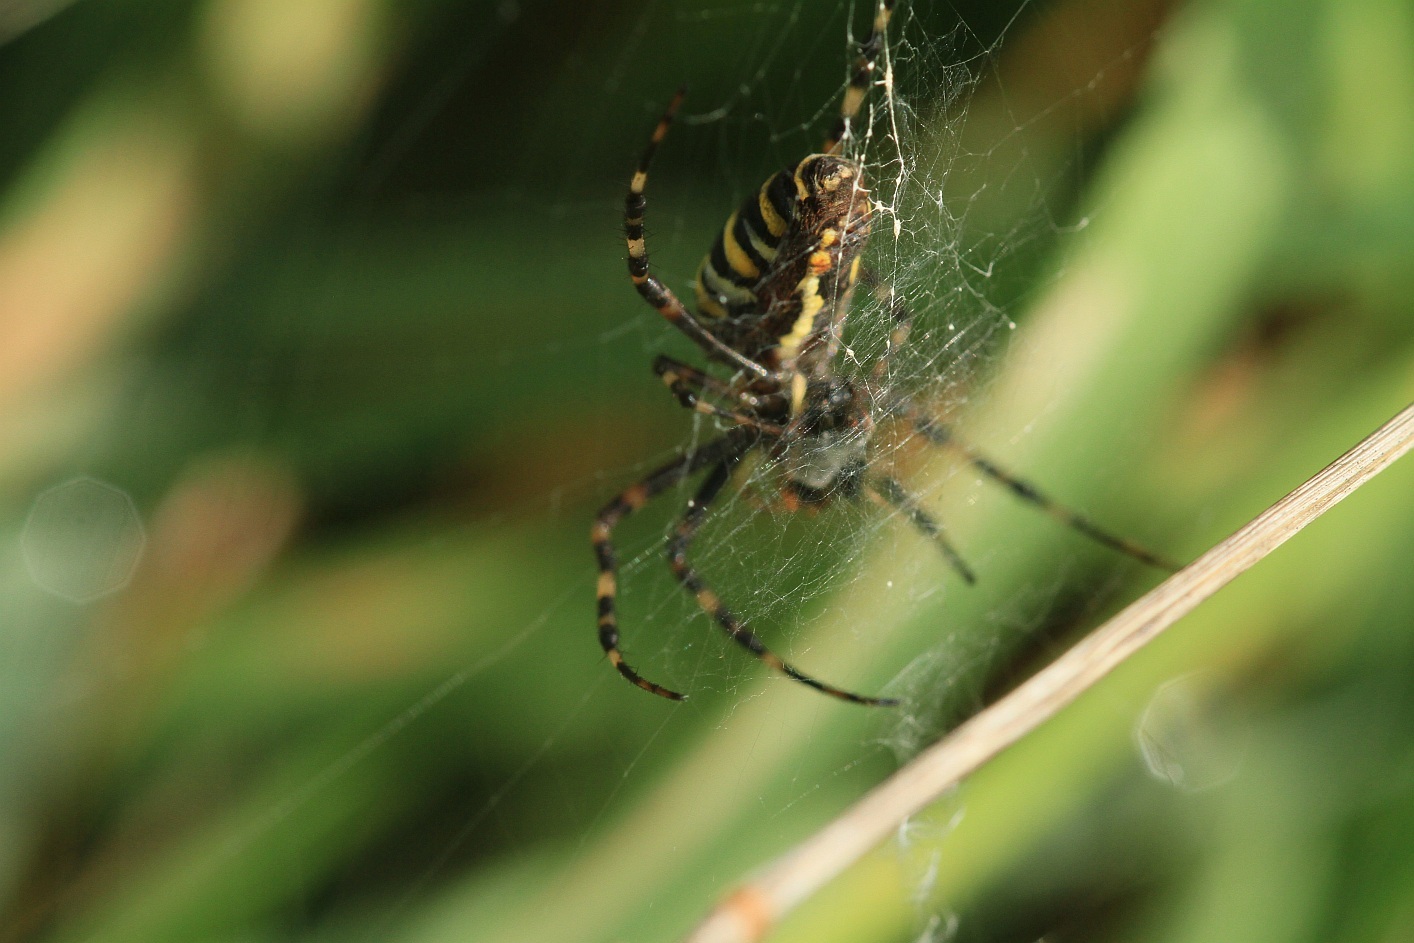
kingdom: Animalia
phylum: Arthropoda
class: Arachnida
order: Araneae
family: Araneidae
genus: Argiope
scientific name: Argiope bruennichi
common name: Wasp spider
